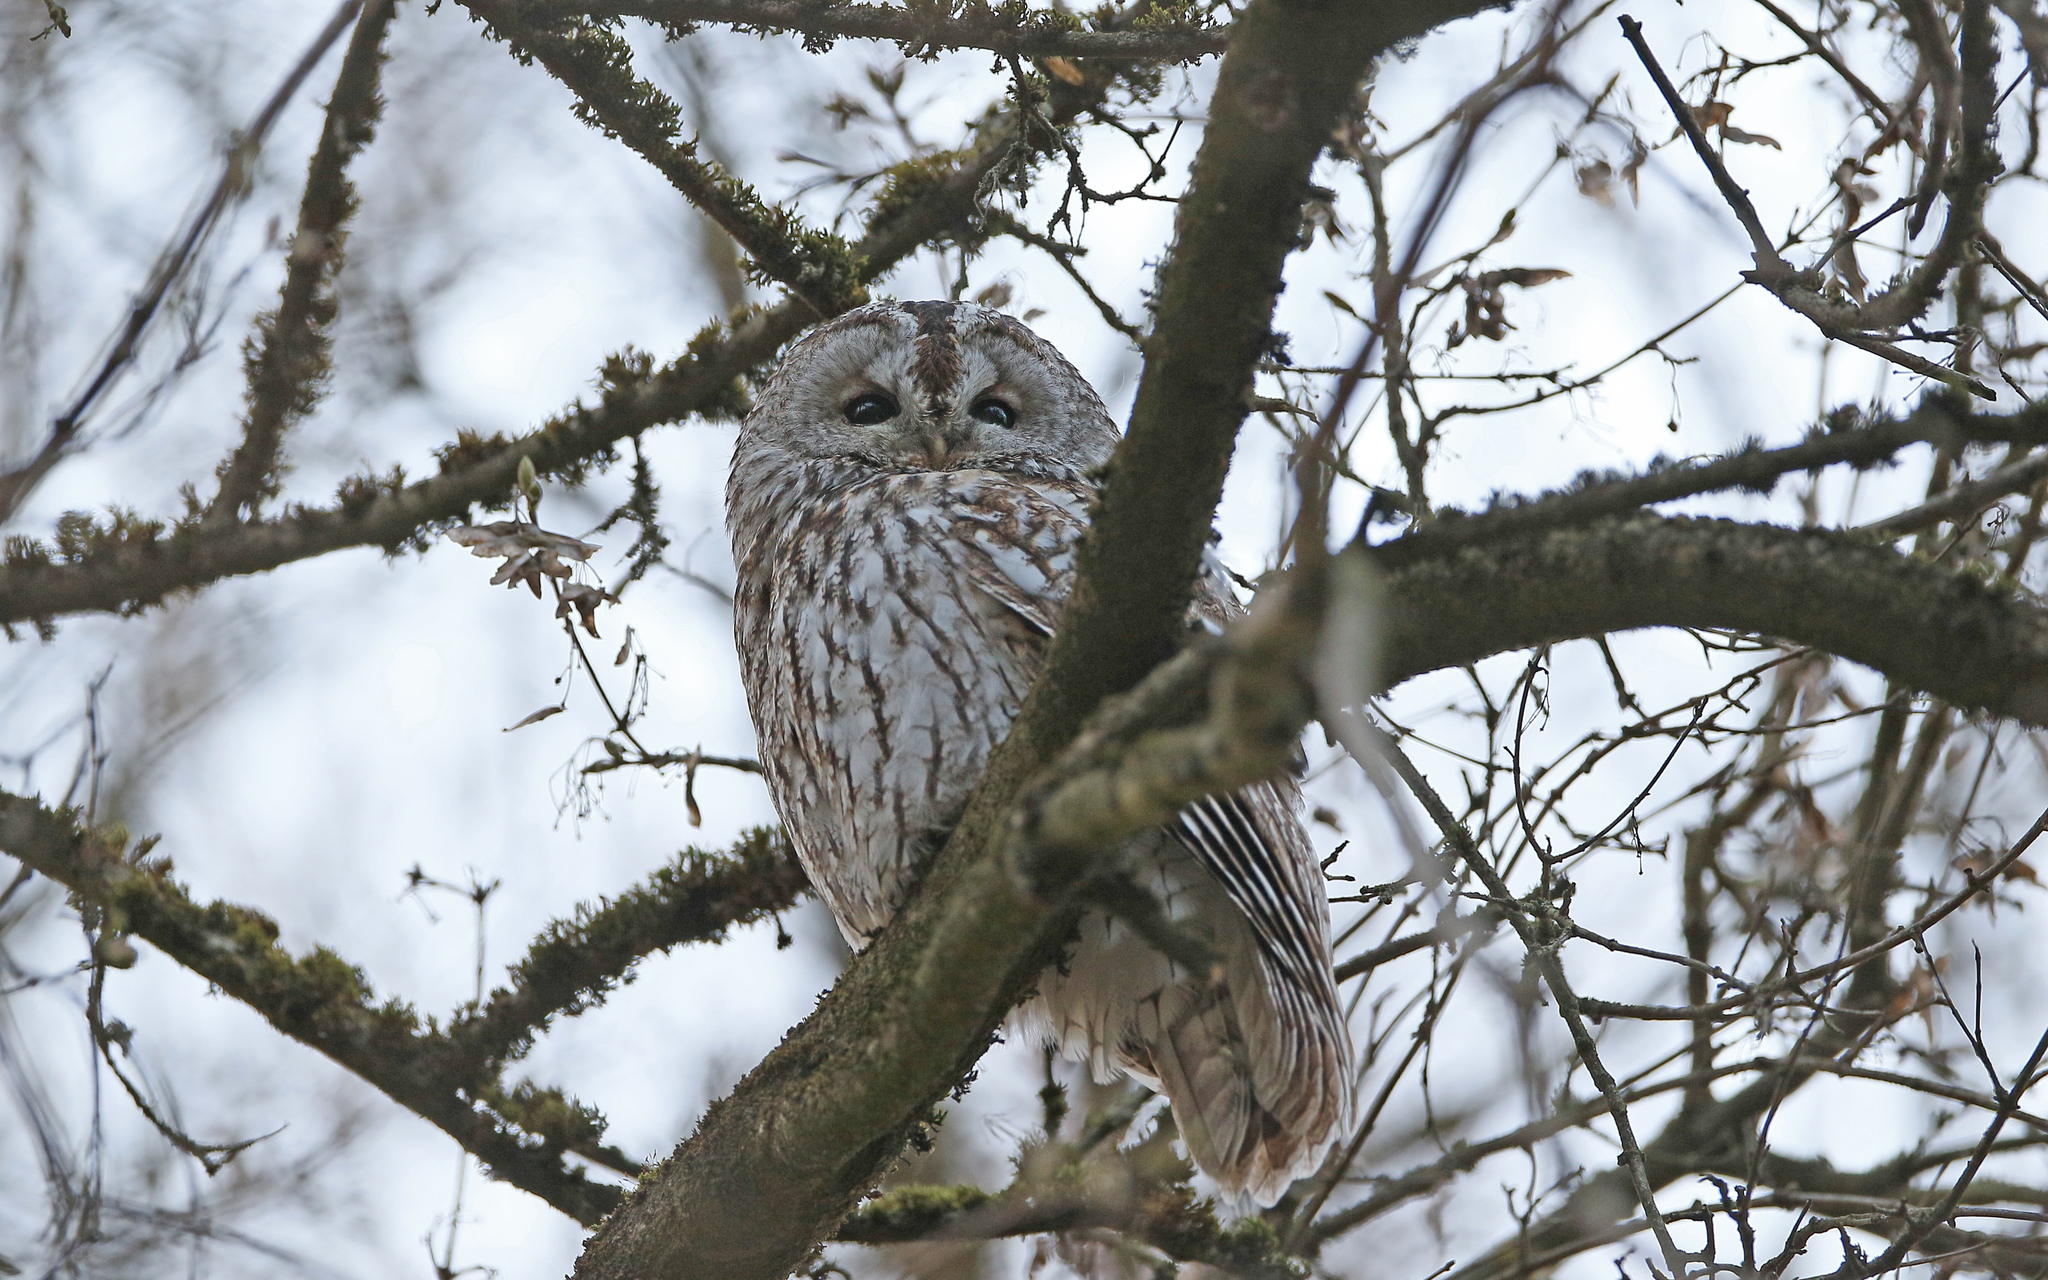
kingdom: Animalia
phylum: Chordata
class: Aves
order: Strigiformes
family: Strigidae
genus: Strix
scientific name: Strix aluco
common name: Tawny owl
